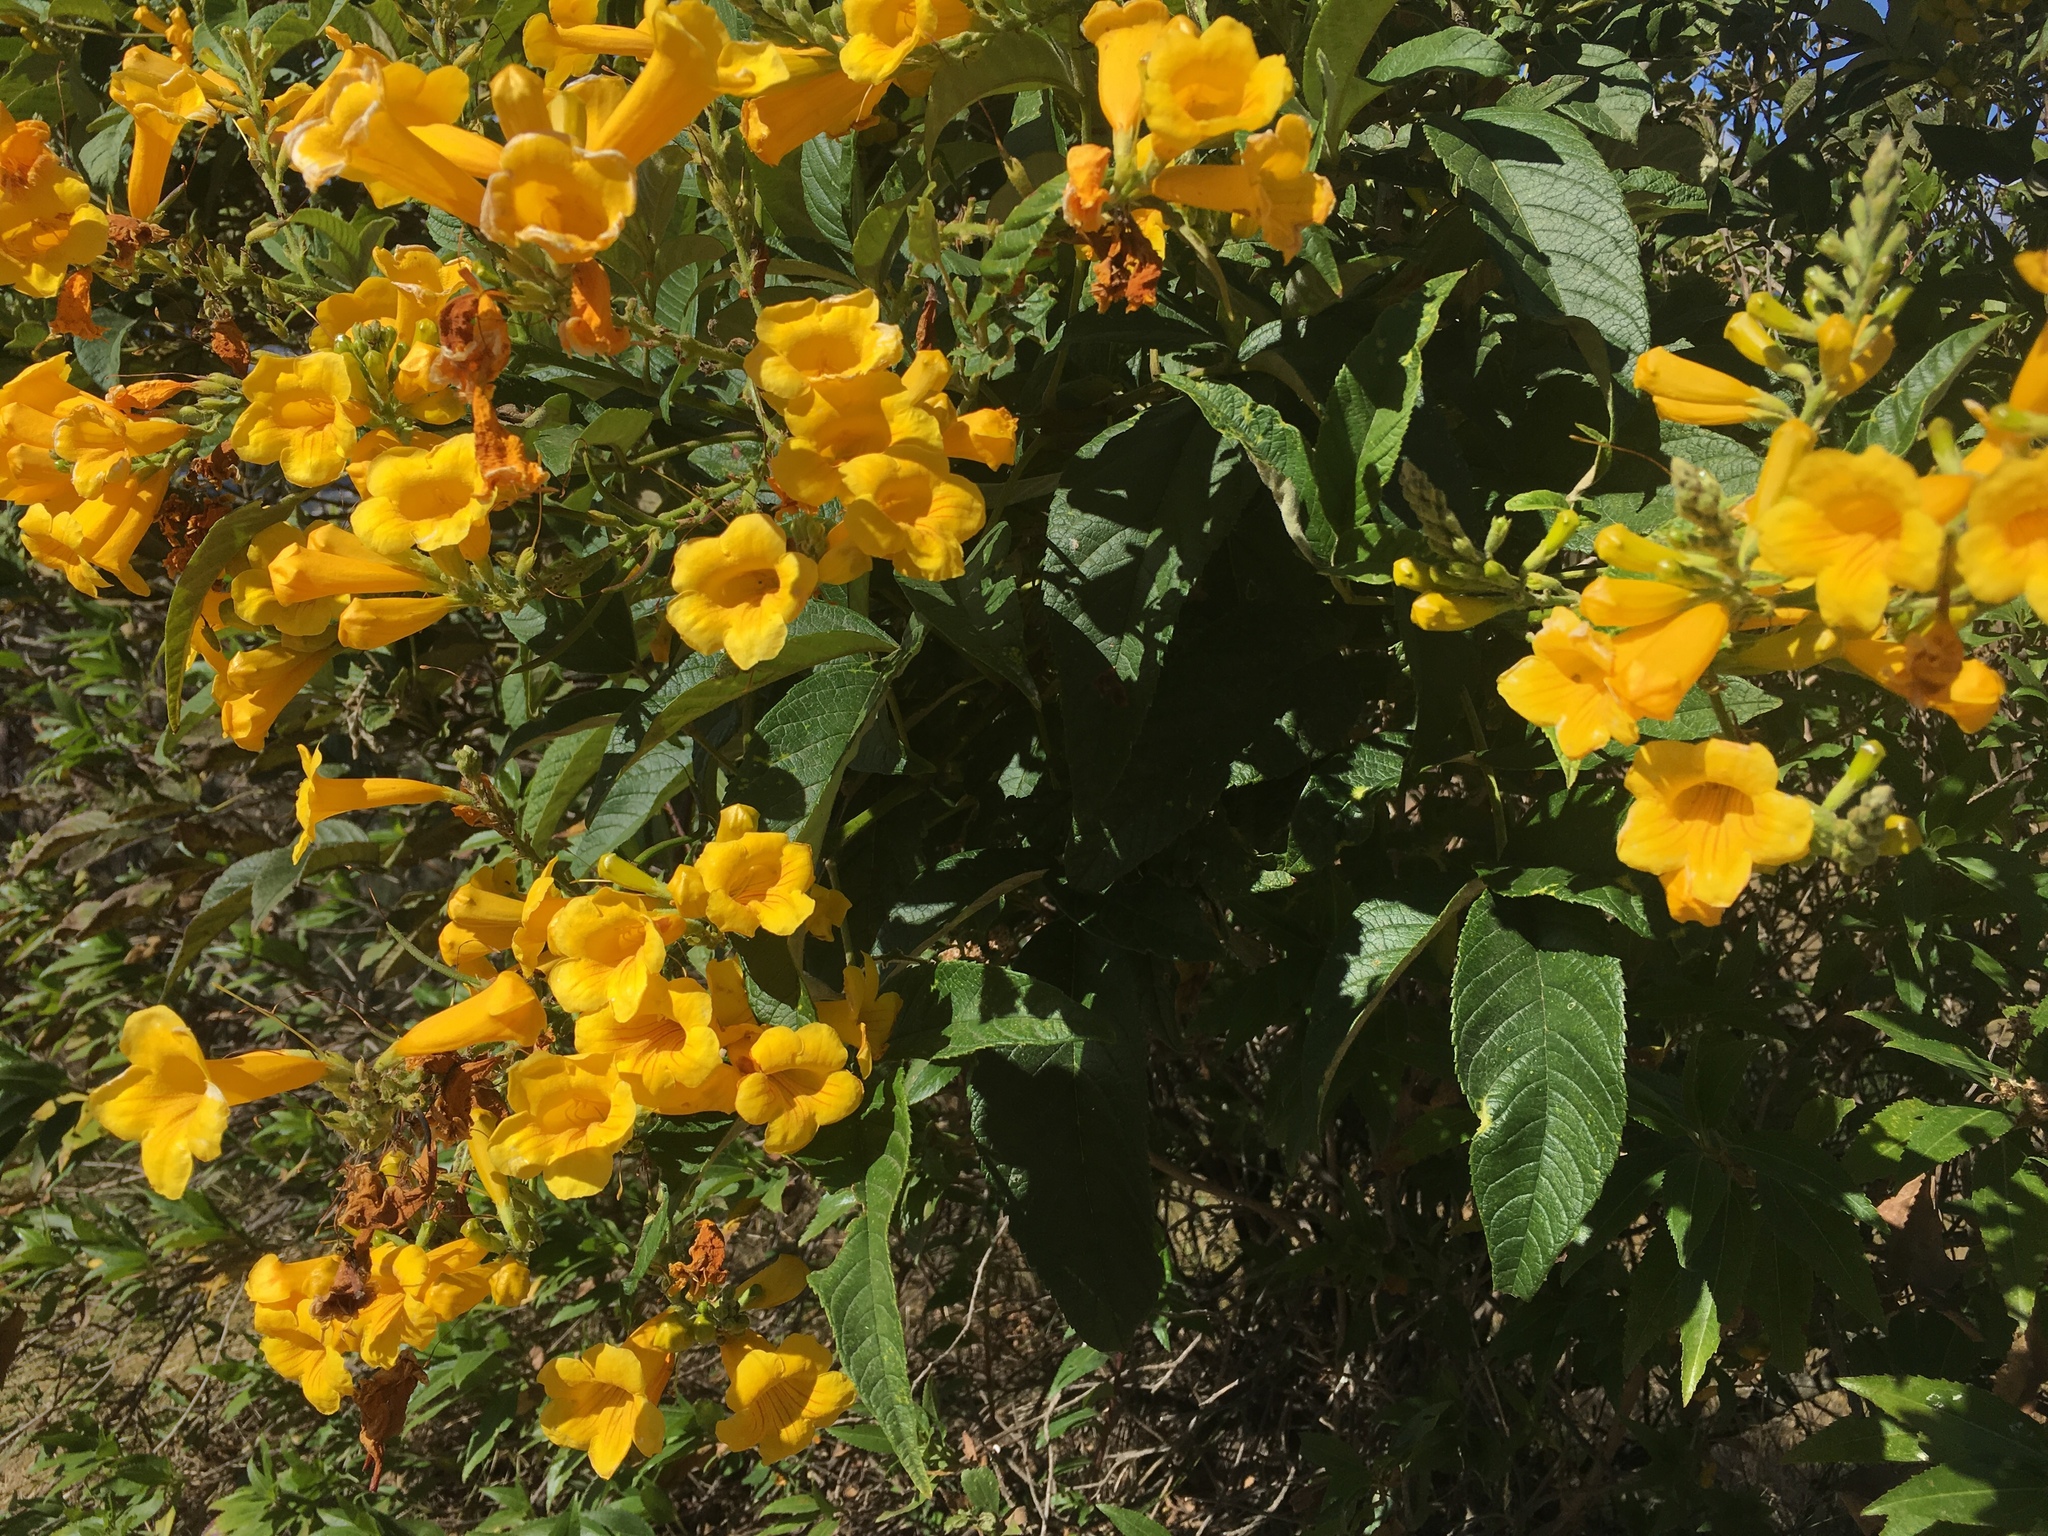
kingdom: Plantae
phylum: Tracheophyta
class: Magnoliopsida
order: Lamiales
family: Bignoniaceae
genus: Tecoma
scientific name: Tecoma stans
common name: Yellow trumpetbush
